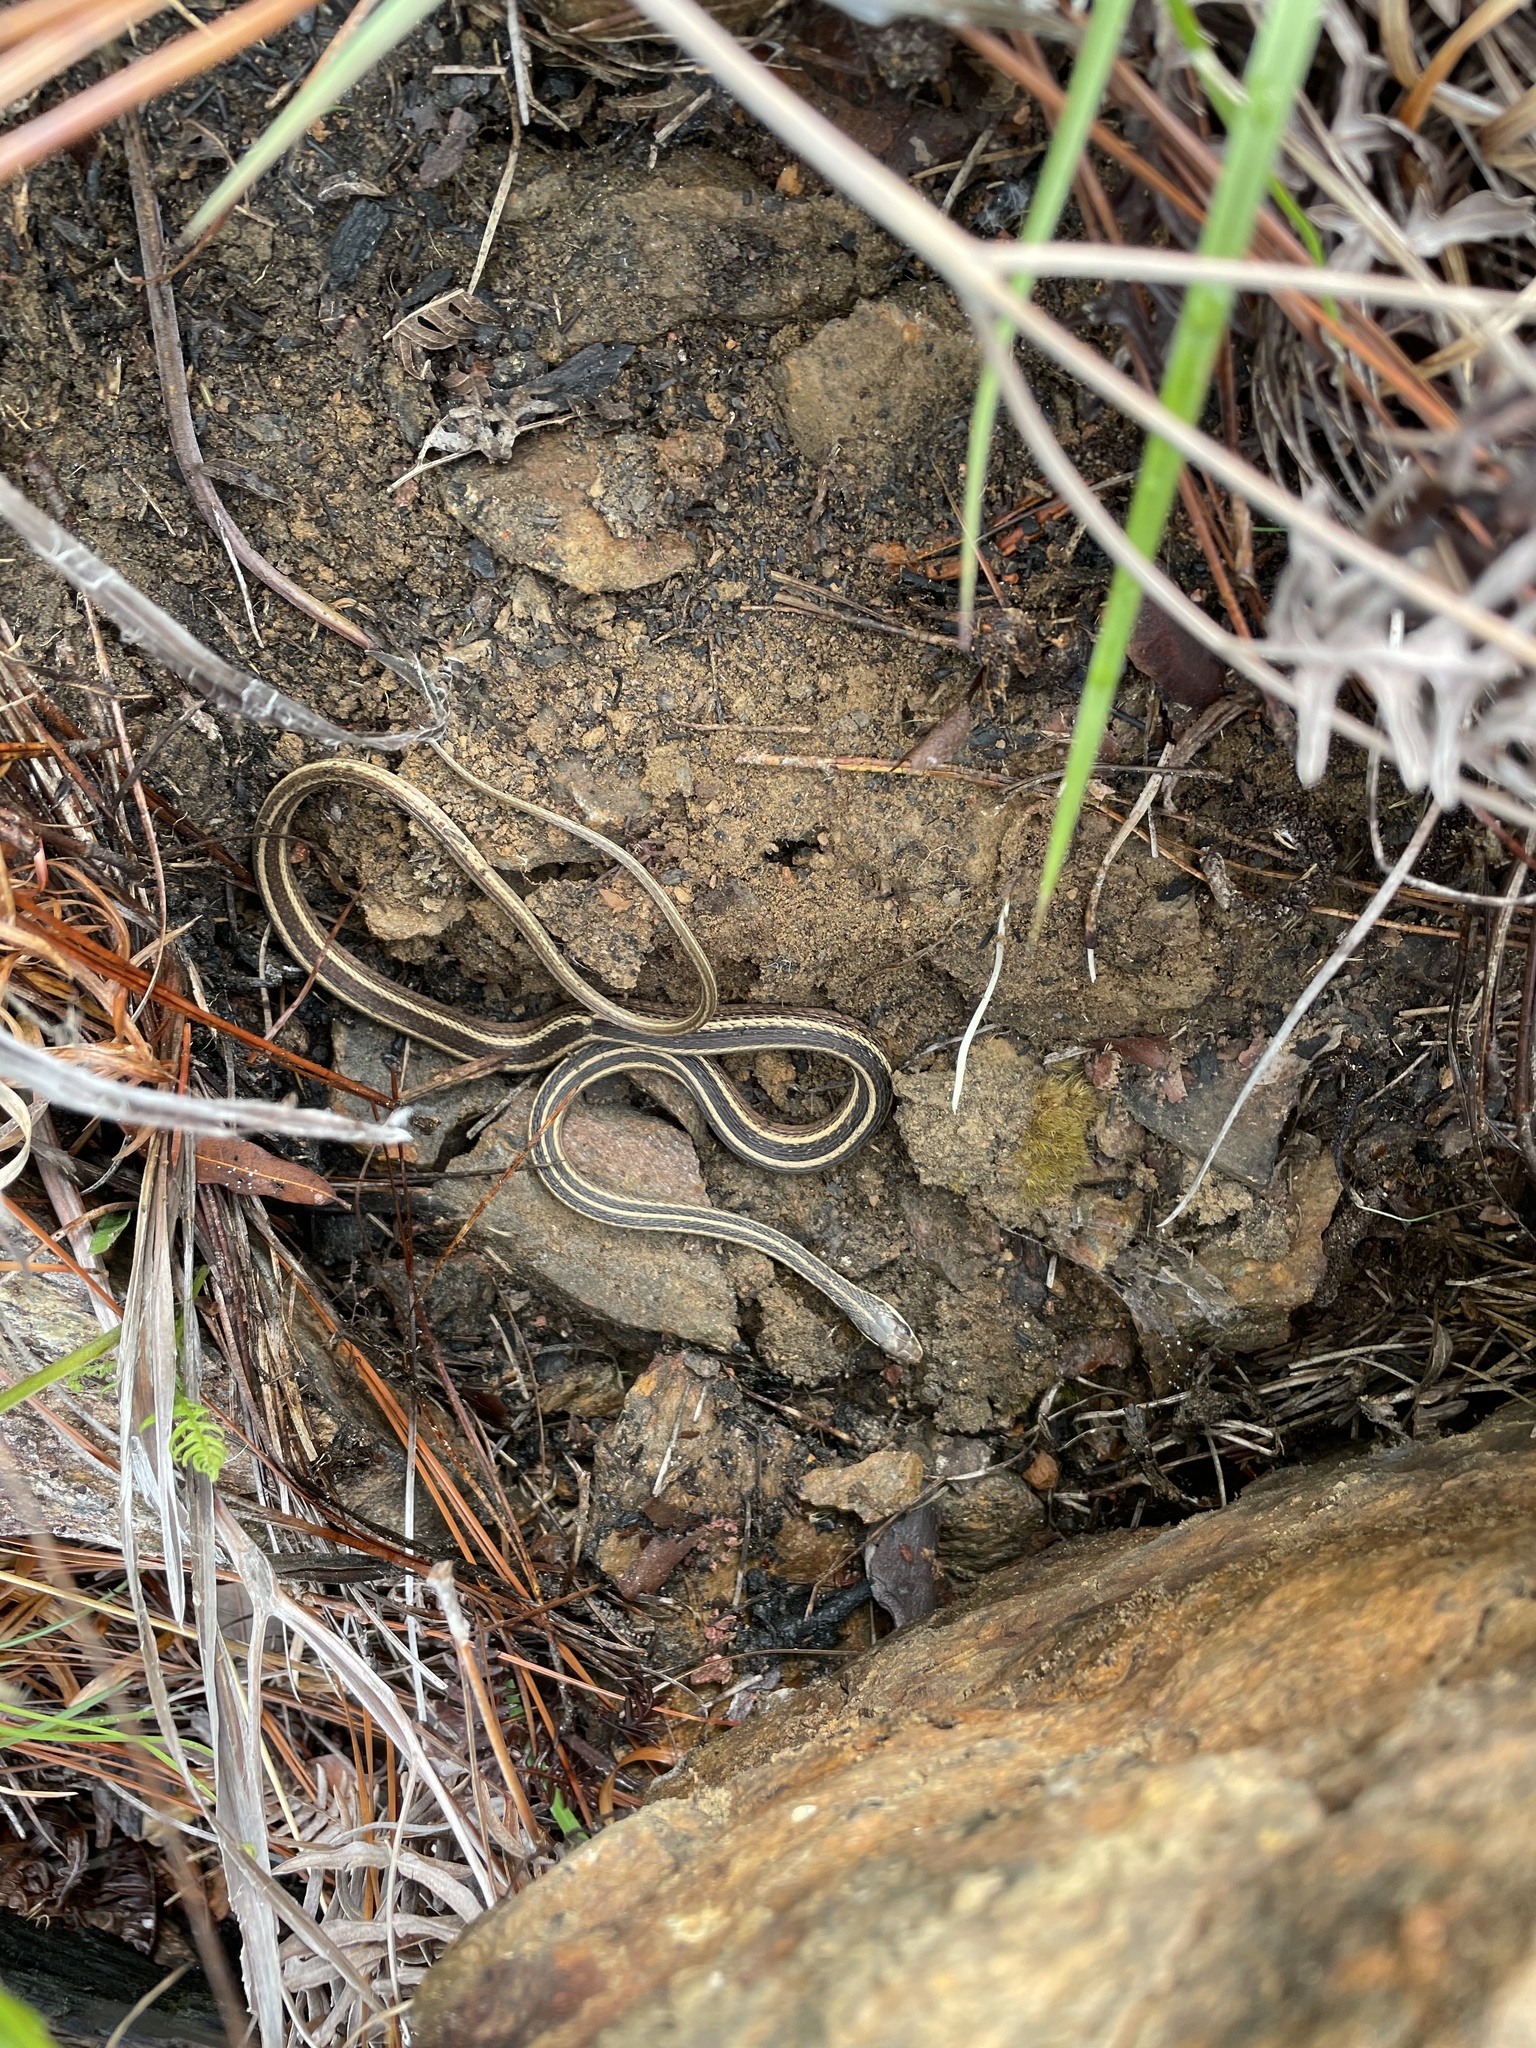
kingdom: Animalia
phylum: Chordata
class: Squamata
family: Colubridae
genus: Thamnophis
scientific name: Thamnophis saurita
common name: Eastern ribbonsnake
